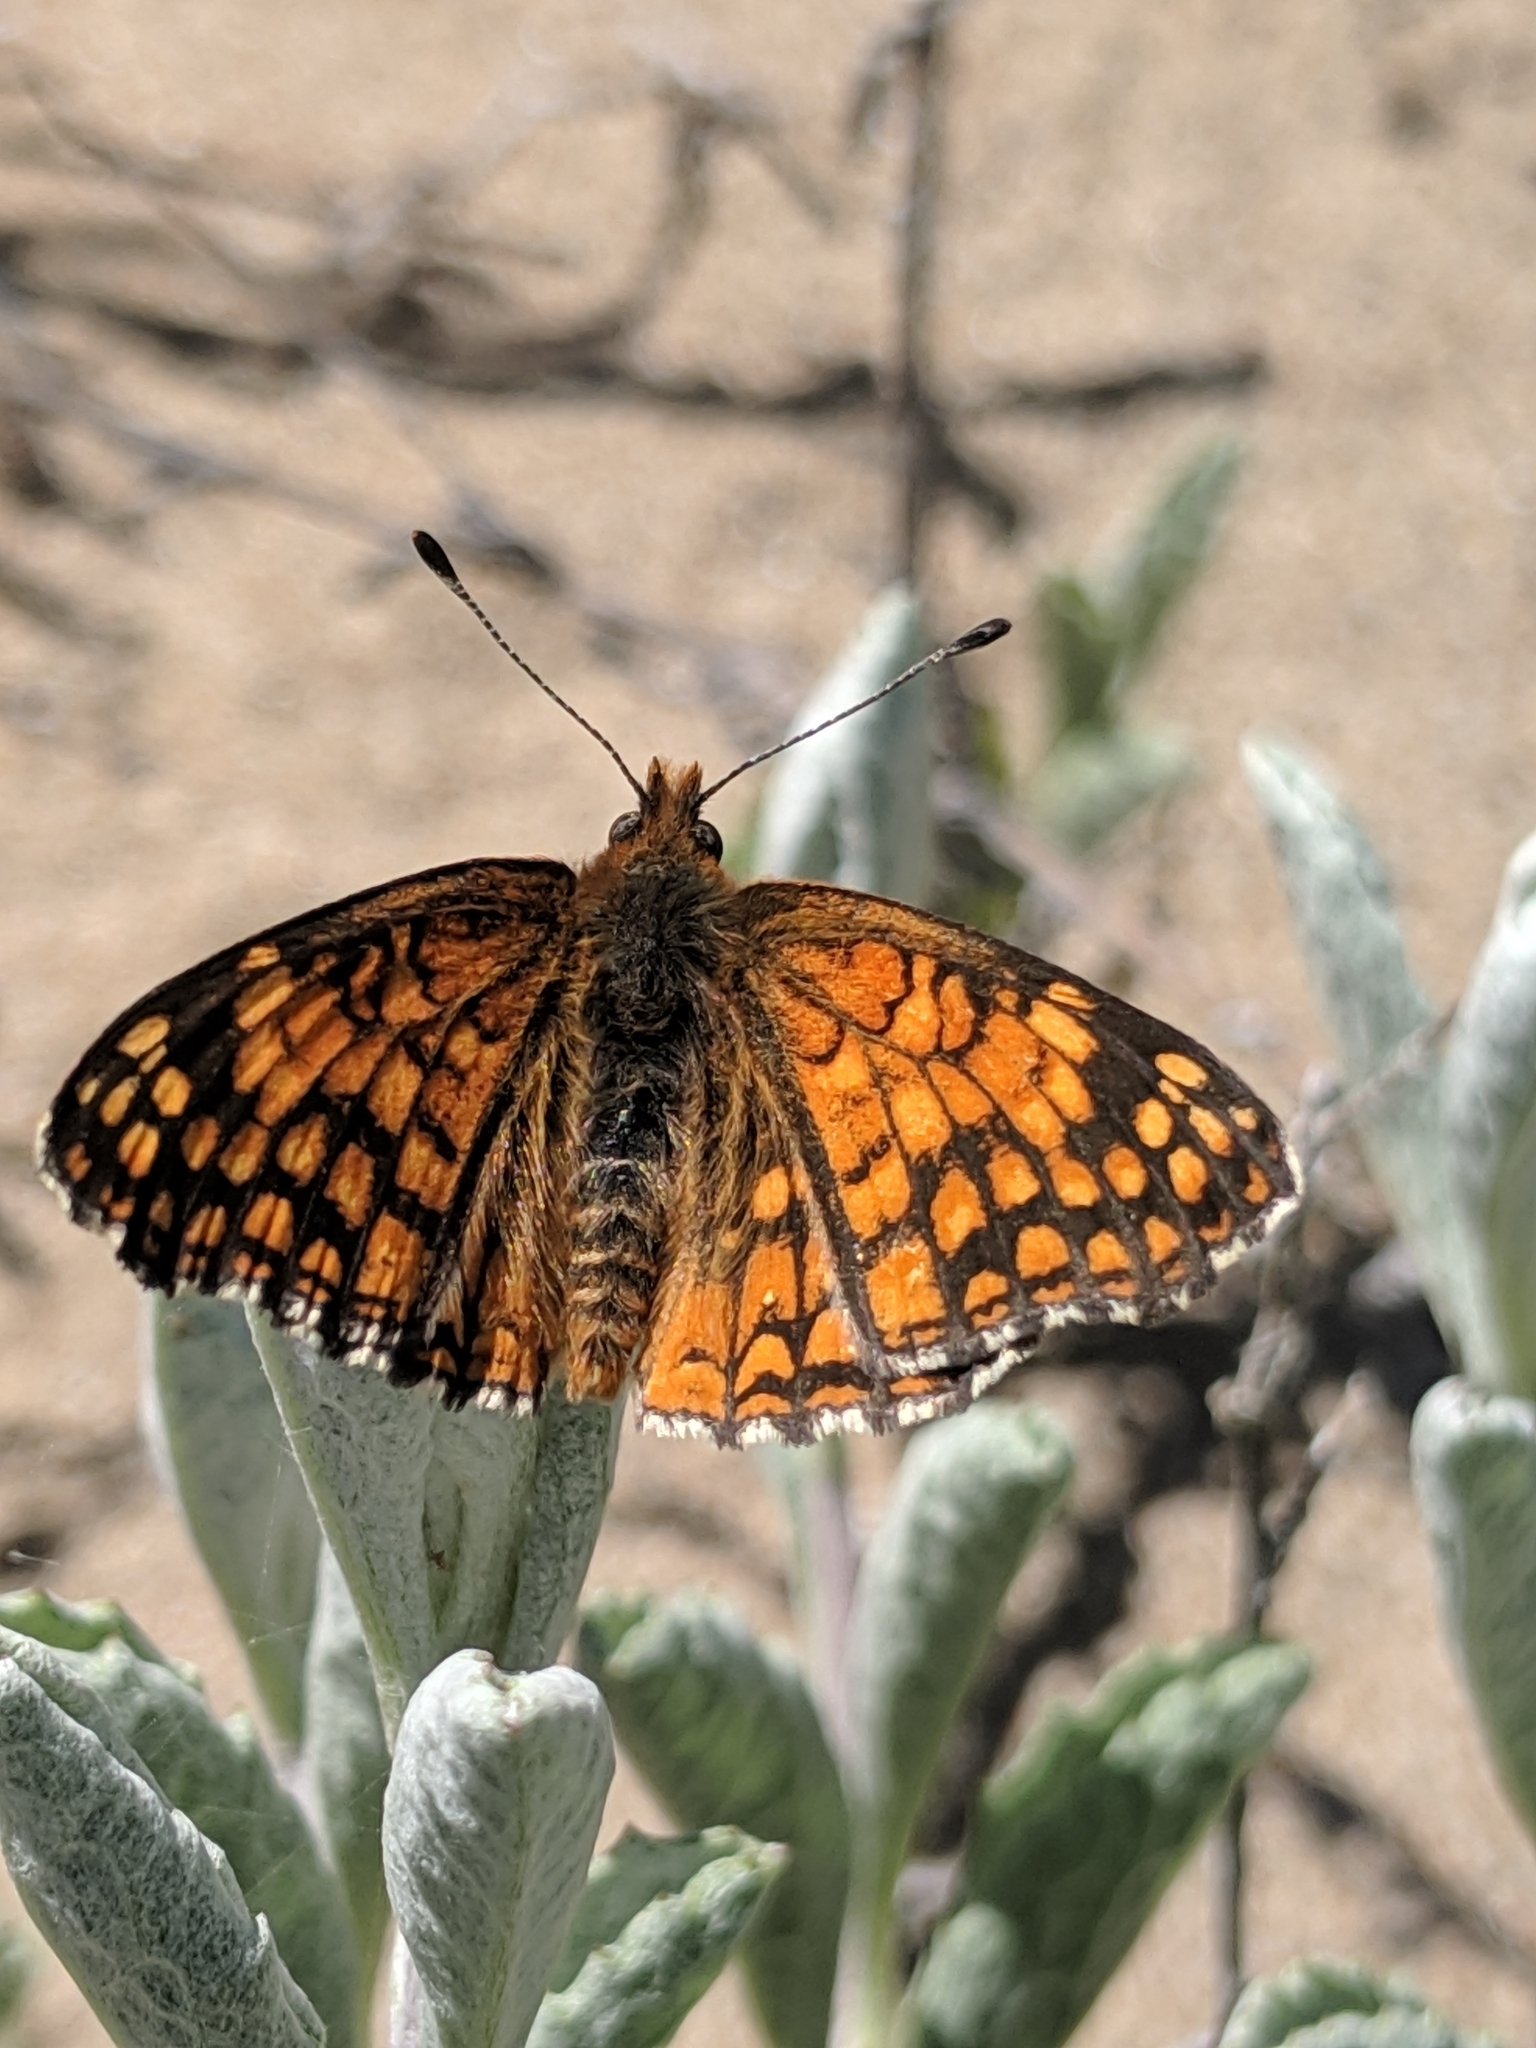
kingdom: Animalia
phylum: Arthropoda
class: Insecta
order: Lepidoptera
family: Nymphalidae
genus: Chlosyne
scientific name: Chlosyne gabbii
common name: Gabb's checkerspot
